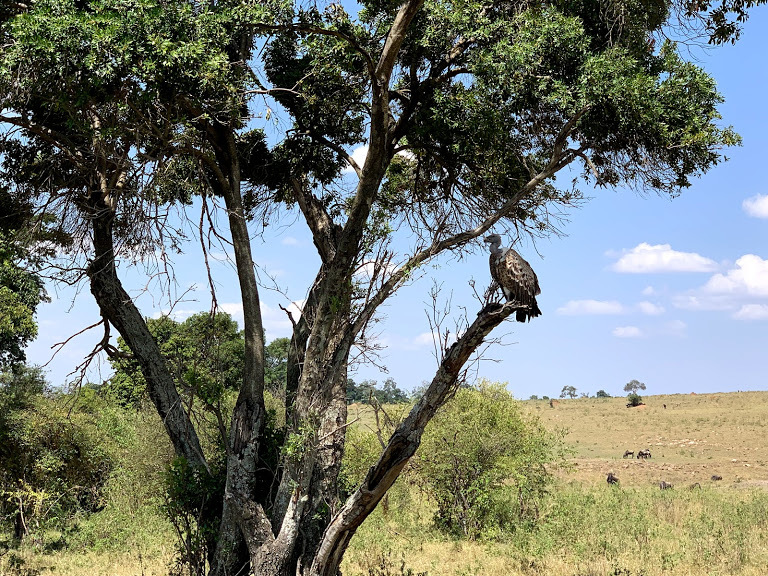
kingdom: Animalia
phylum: Chordata
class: Aves
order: Accipitriformes
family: Accipitridae
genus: Gyps
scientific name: Gyps rueppellii
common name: Rüppell's vulture
